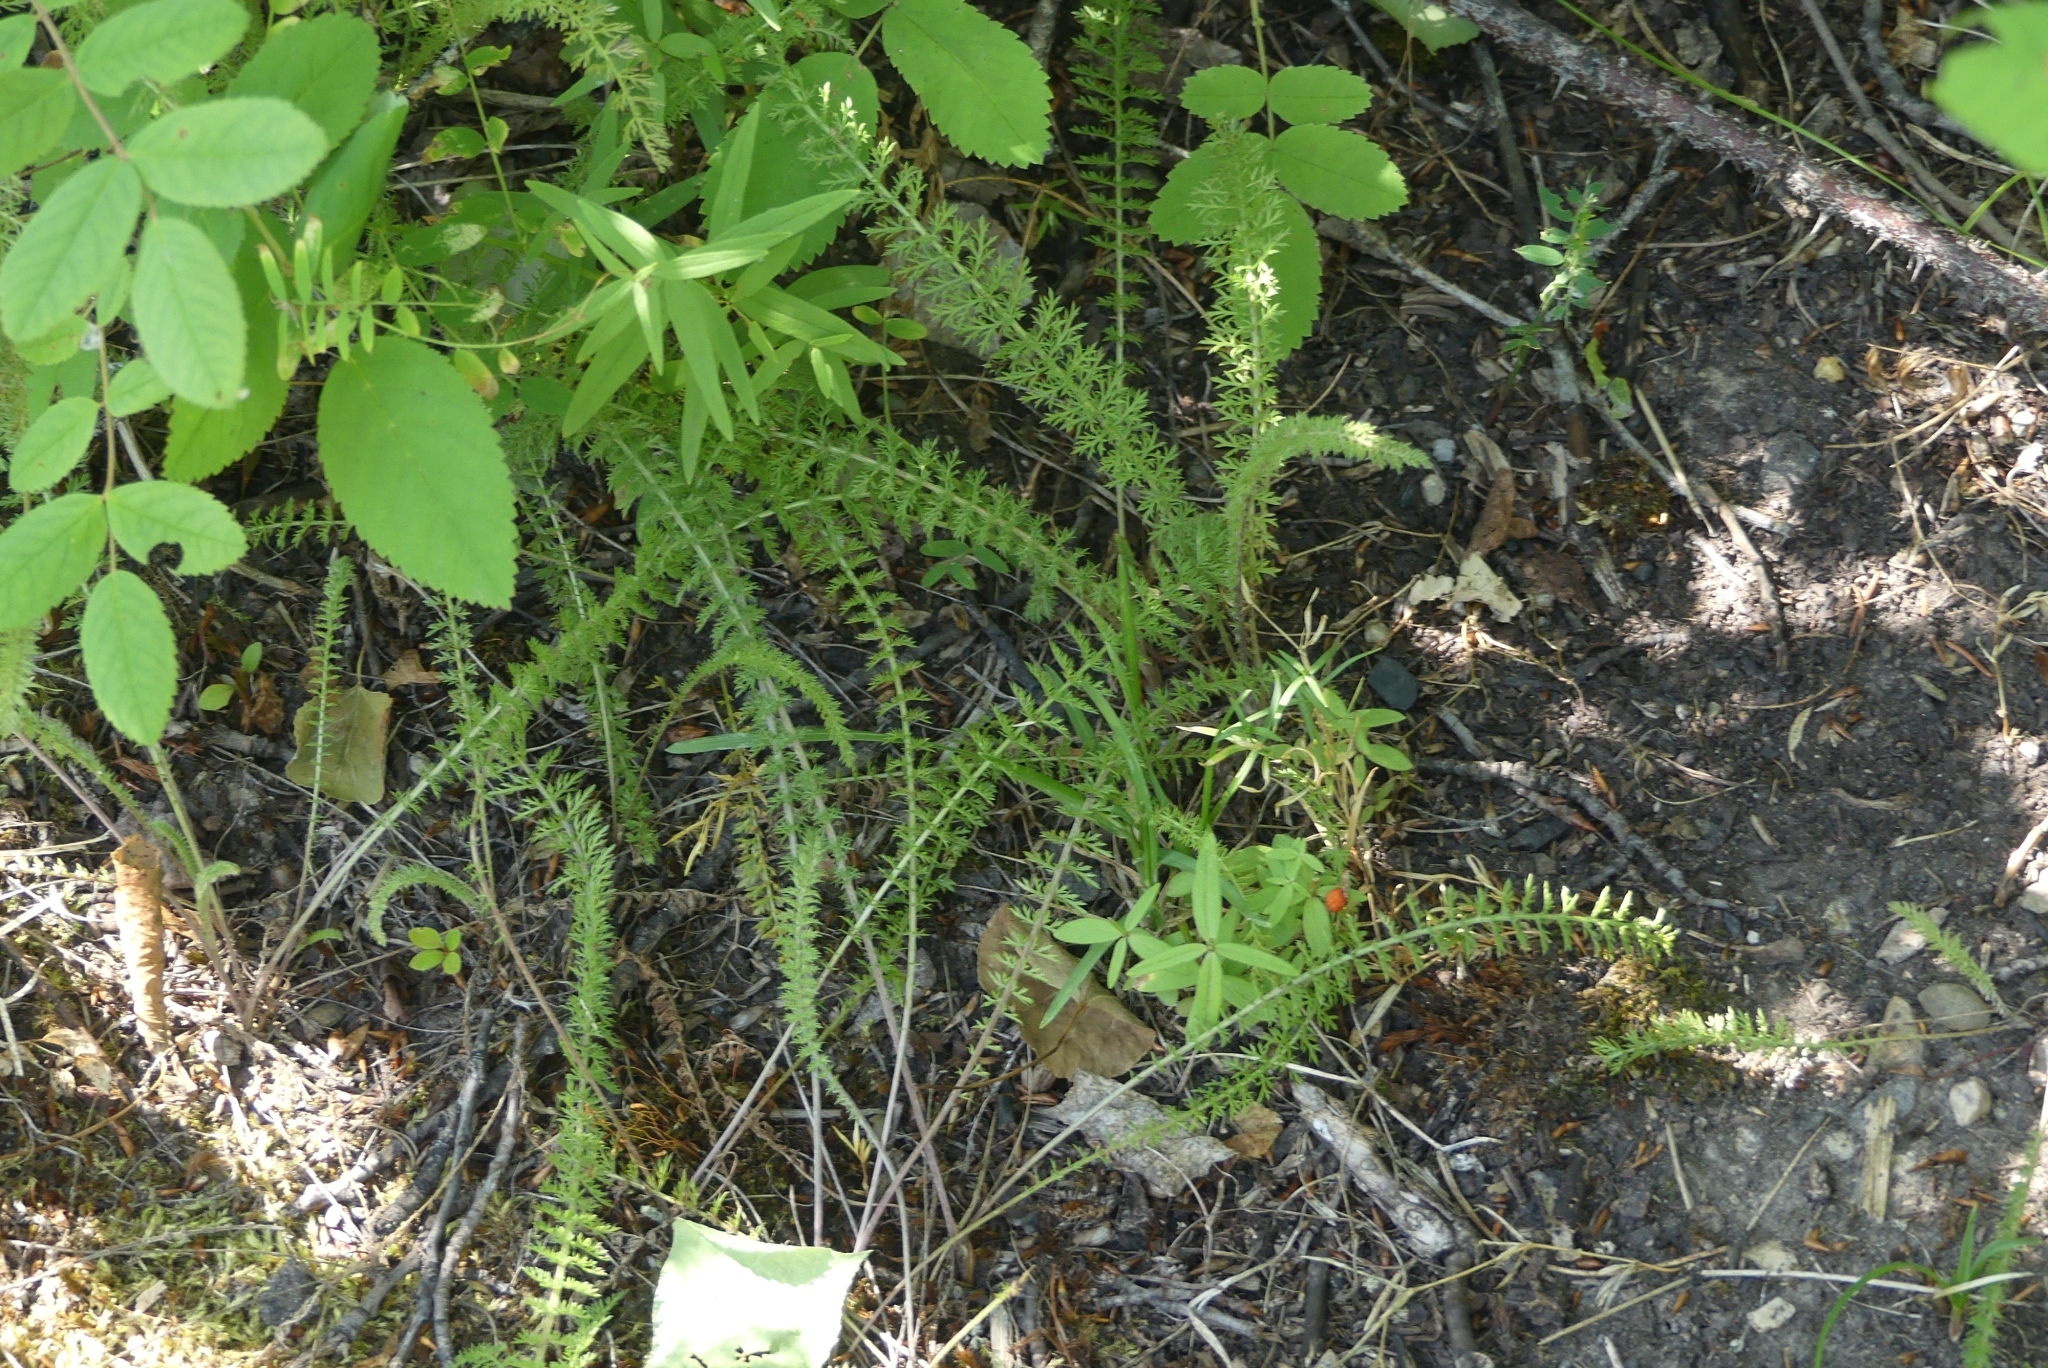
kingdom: Plantae
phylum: Tracheophyta
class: Magnoliopsida
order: Asterales
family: Asteraceae
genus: Achillea
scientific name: Achillea millefolium
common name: Yarrow
